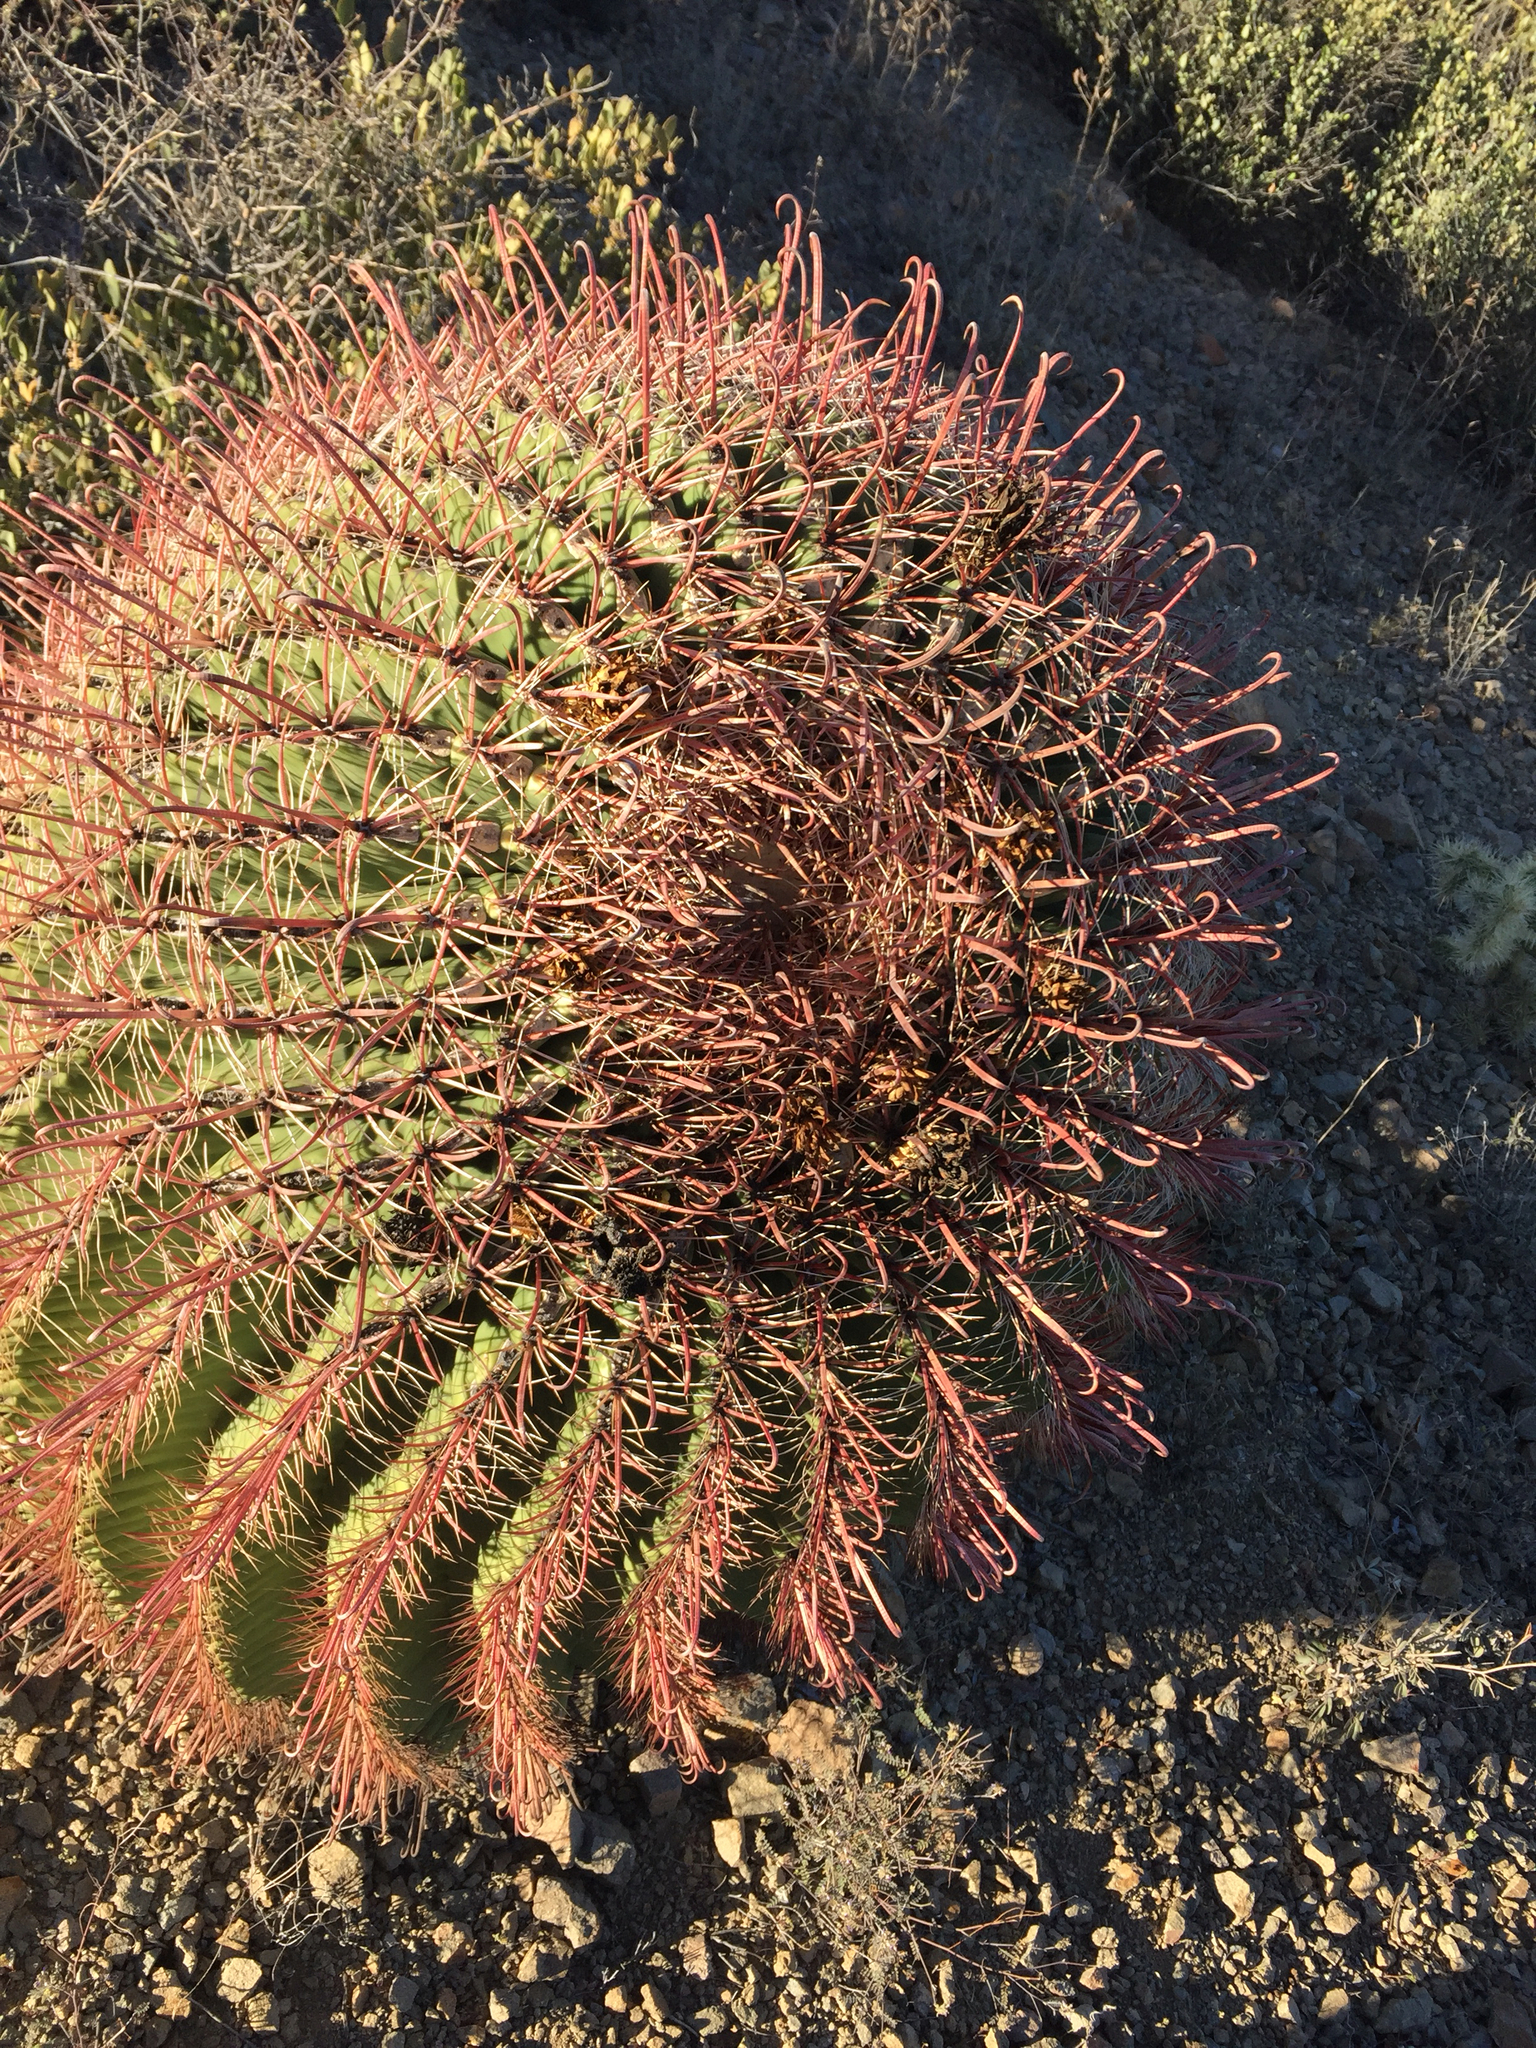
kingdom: Plantae
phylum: Tracheophyta
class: Magnoliopsida
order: Caryophyllales
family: Cactaceae
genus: Ferocactus
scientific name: Ferocactus wislizeni
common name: Candy barrel cactus
